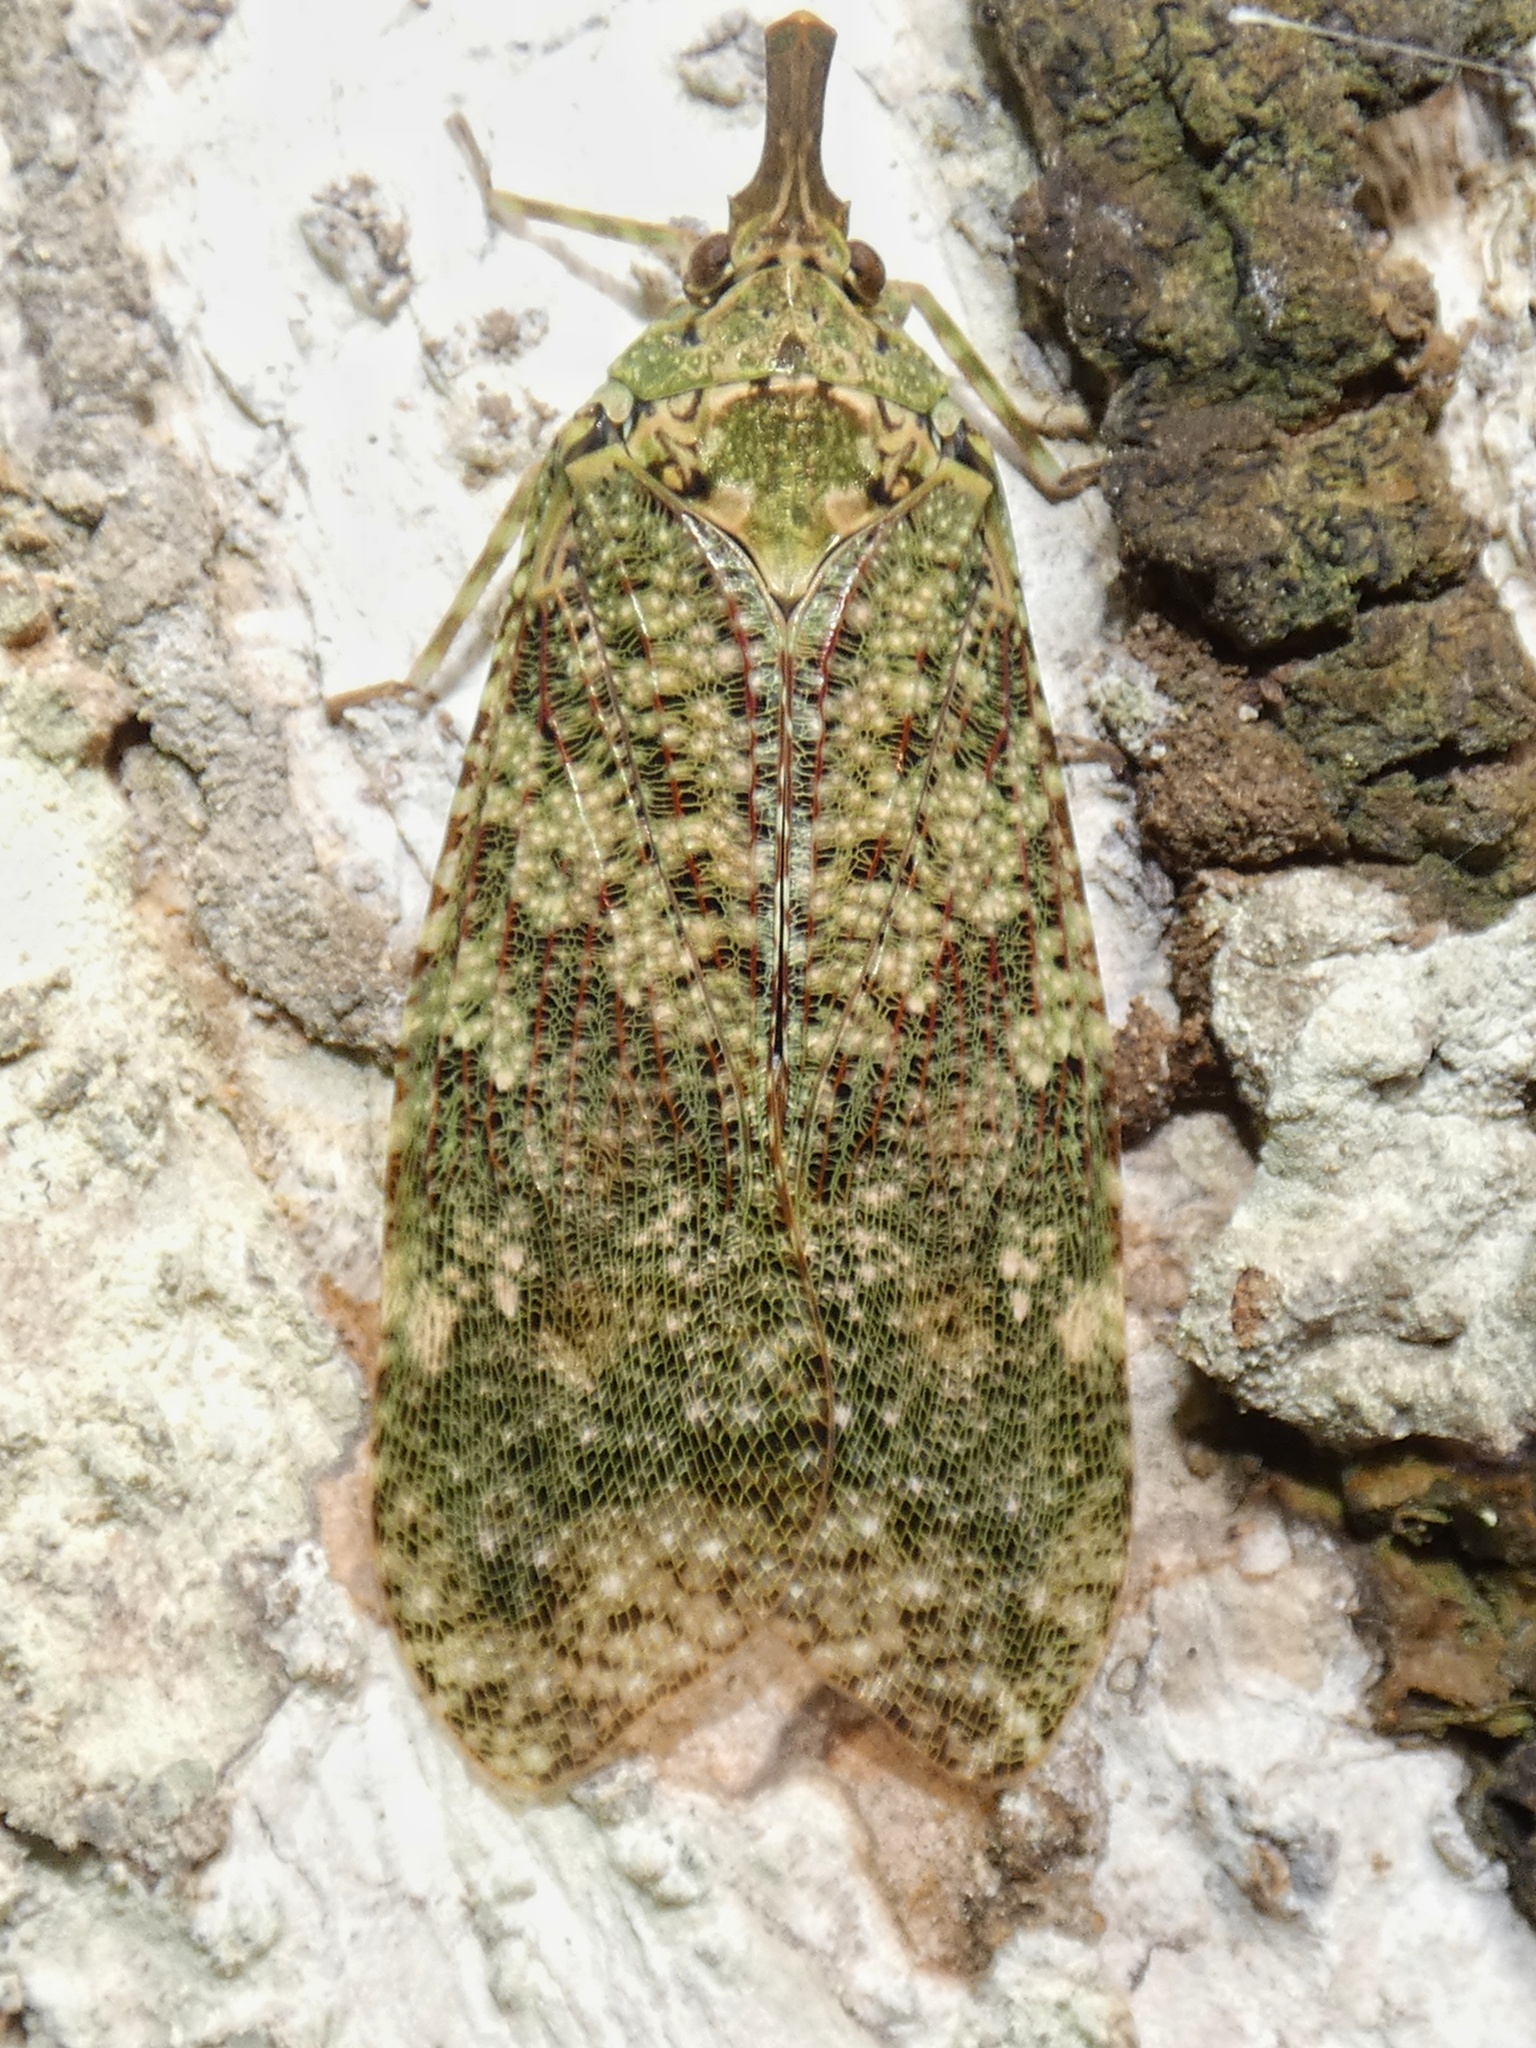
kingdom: Animalia
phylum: Arthropoda
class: Insecta
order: Hemiptera
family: Fulgoridae
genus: Diareusa
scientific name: Diareusa imitatrix
